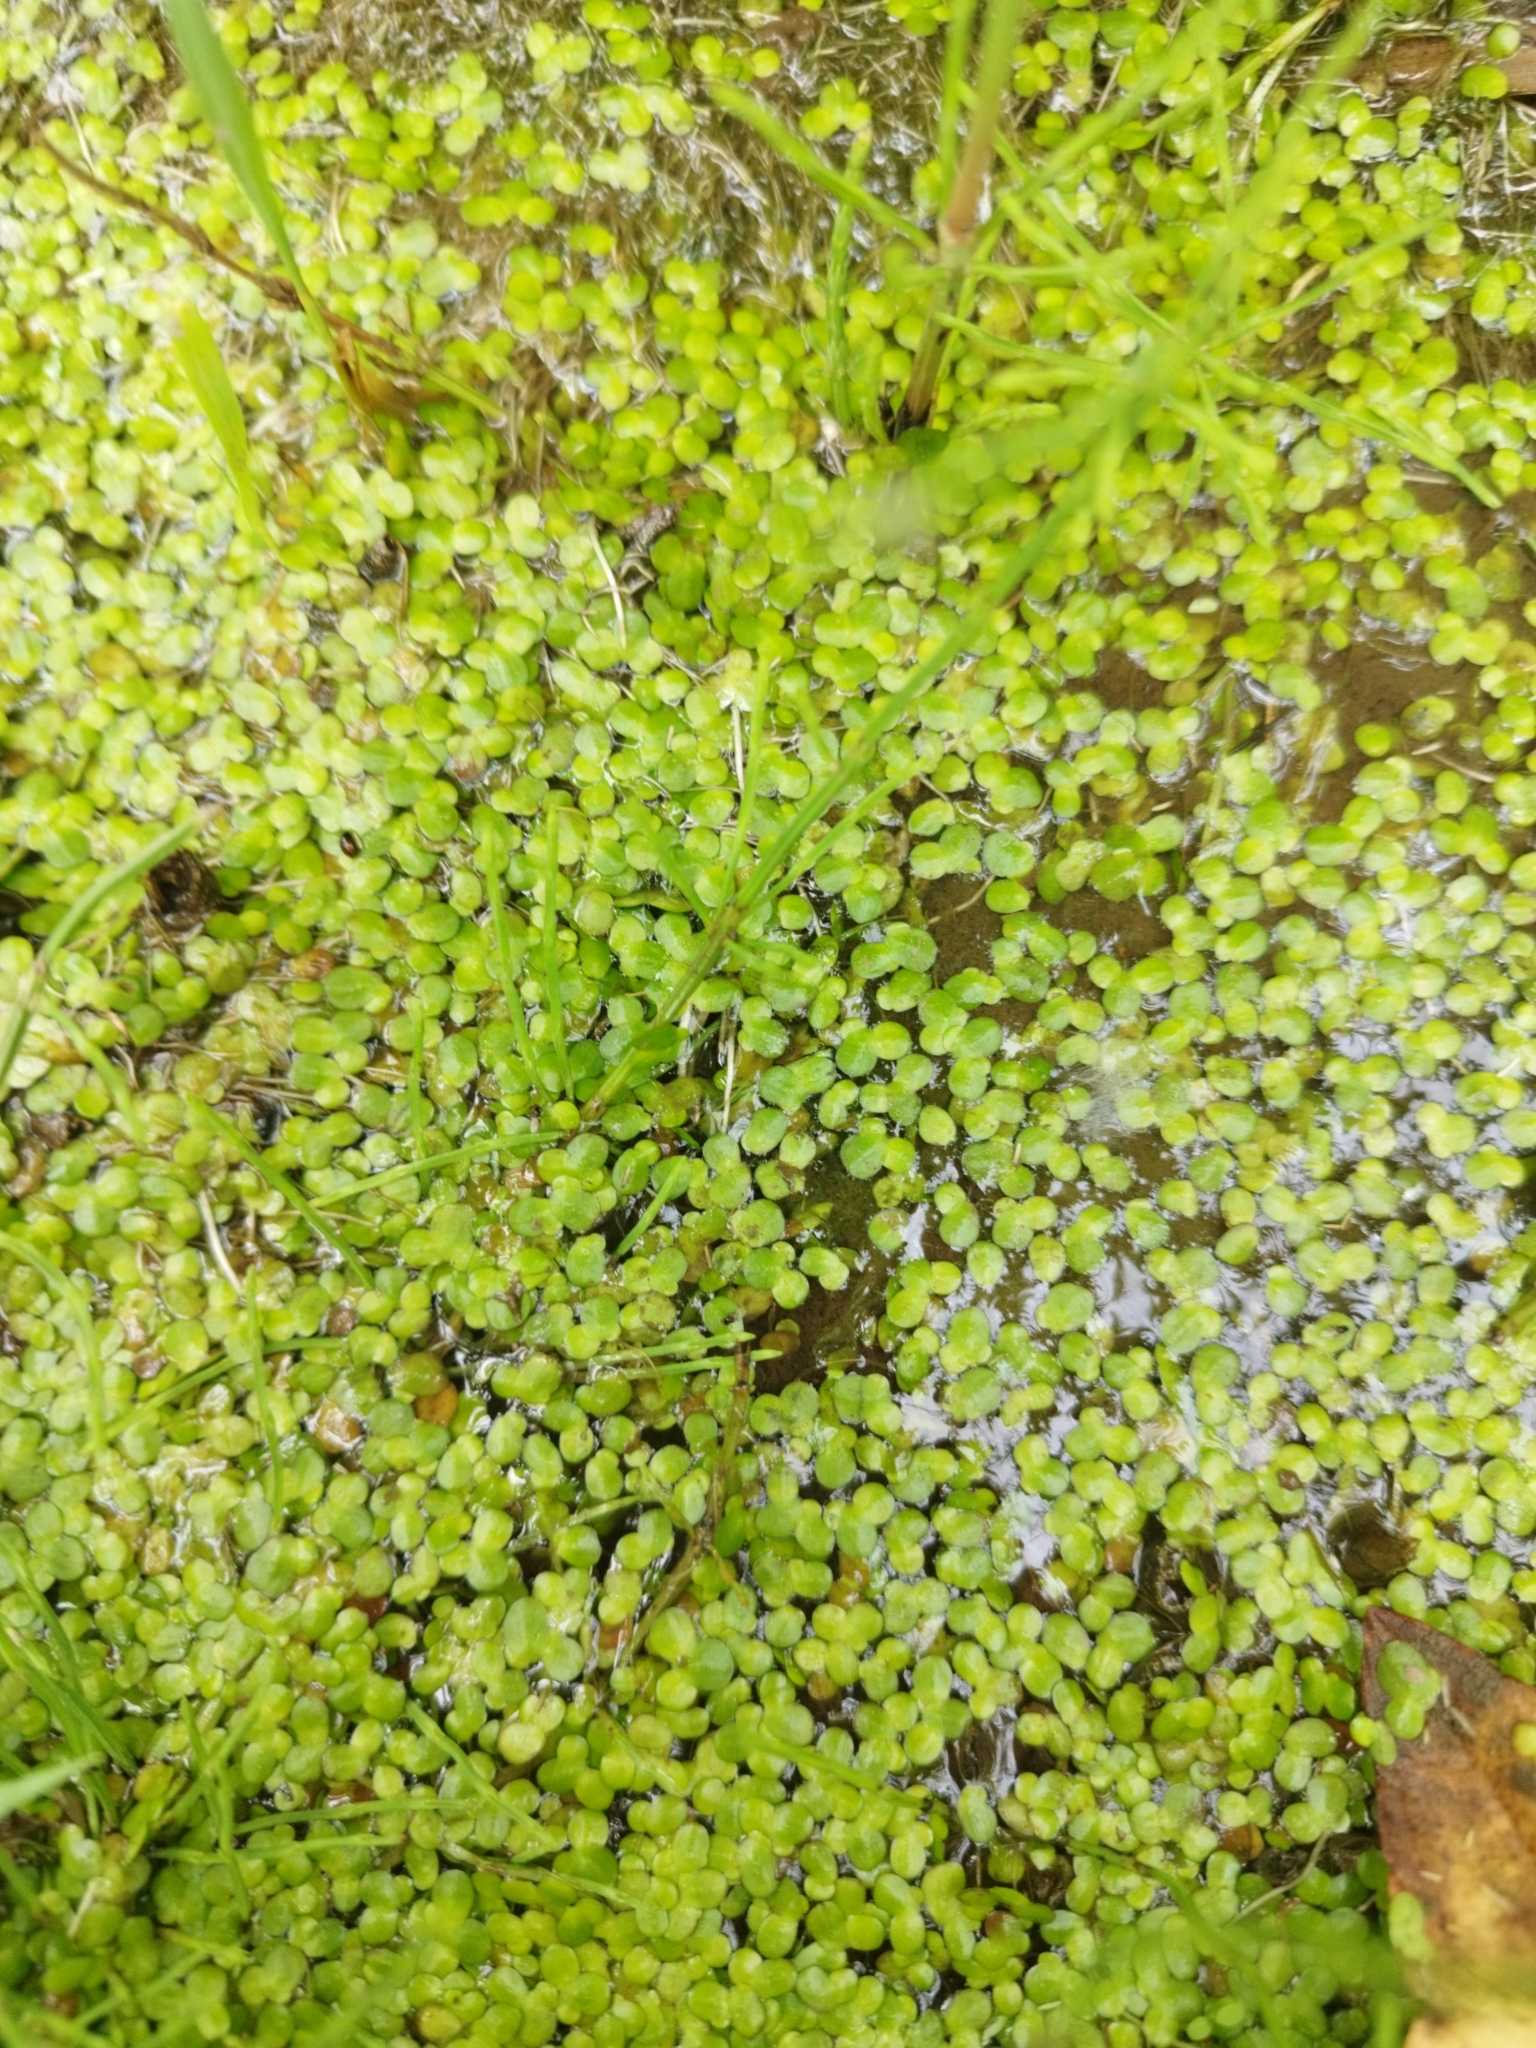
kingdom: Plantae
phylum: Tracheophyta
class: Liliopsida
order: Alismatales
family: Araceae
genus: Lemna
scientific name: Lemna minor
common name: Common duckweed
